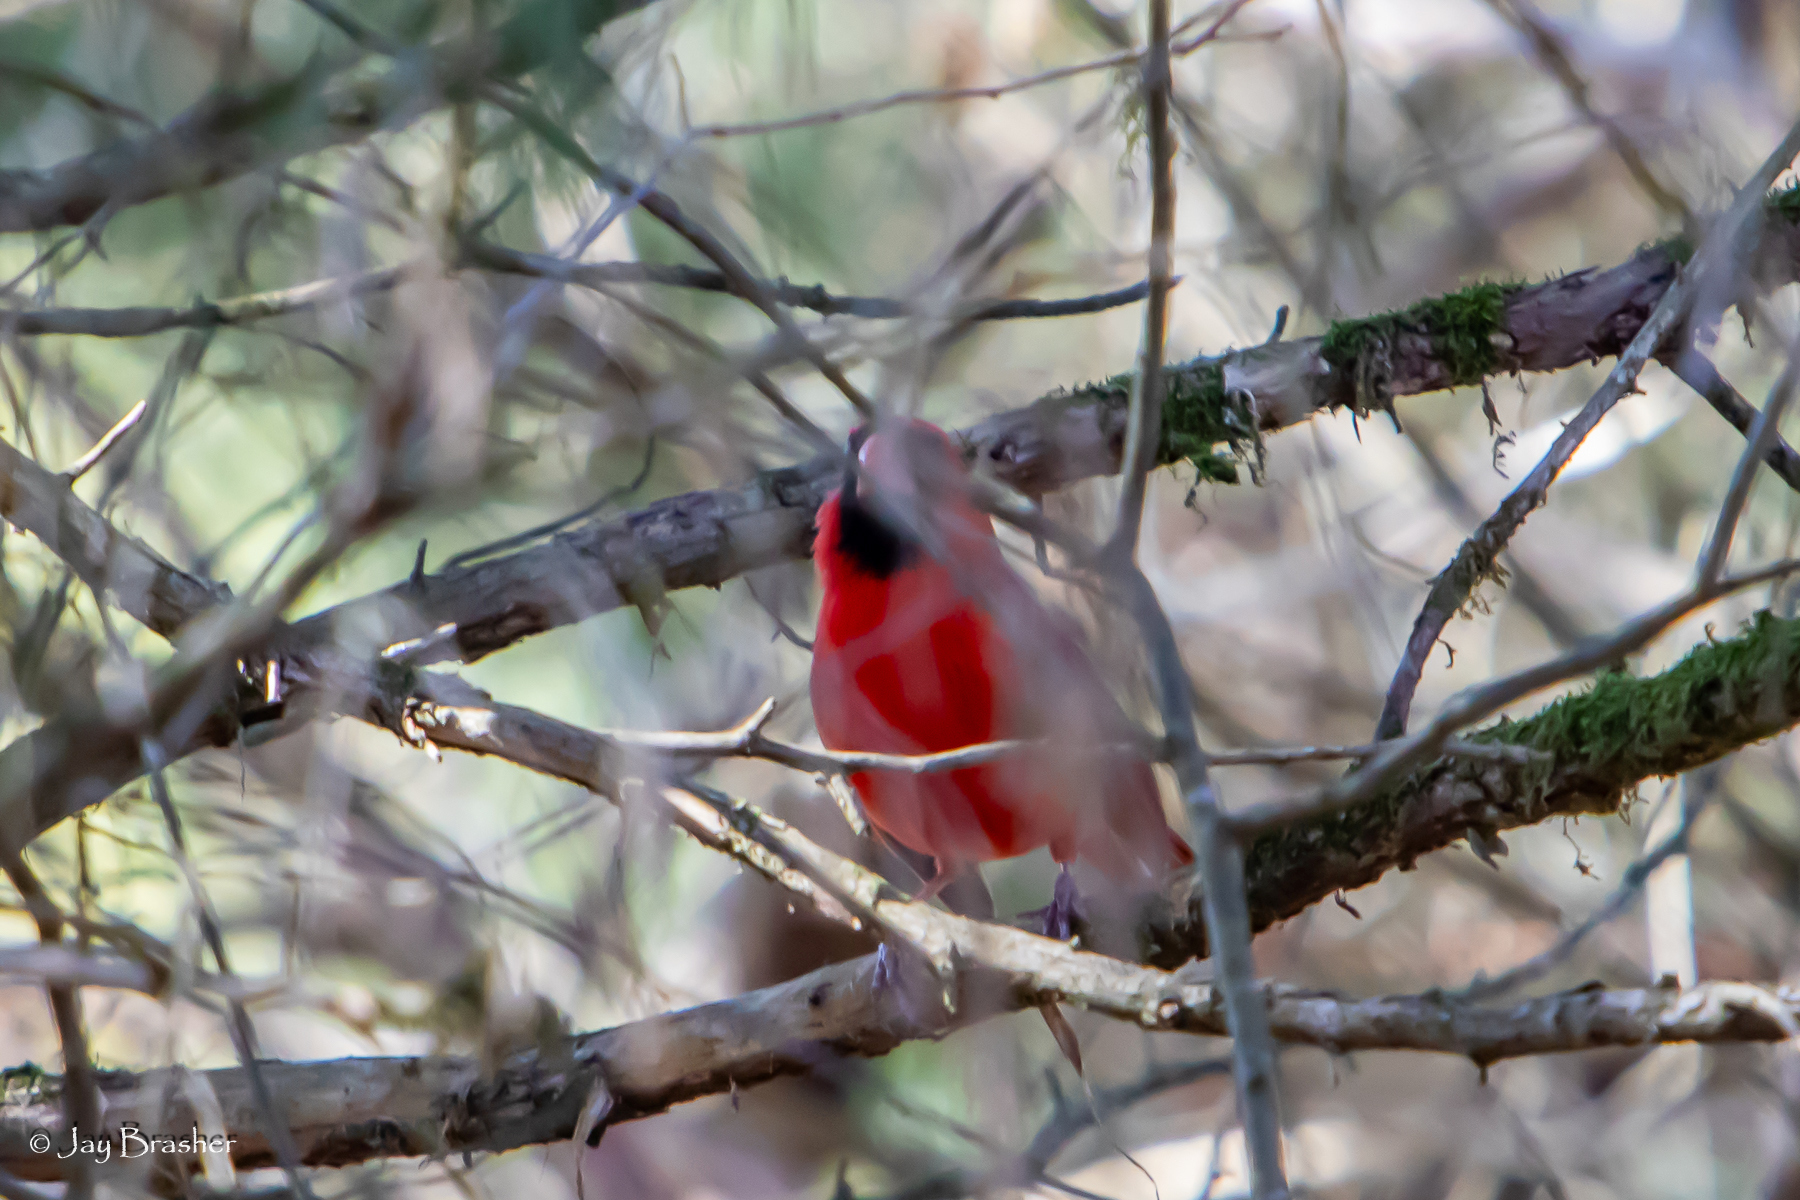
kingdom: Animalia
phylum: Chordata
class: Aves
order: Passeriformes
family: Cardinalidae
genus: Cardinalis
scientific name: Cardinalis cardinalis
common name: Northern cardinal
